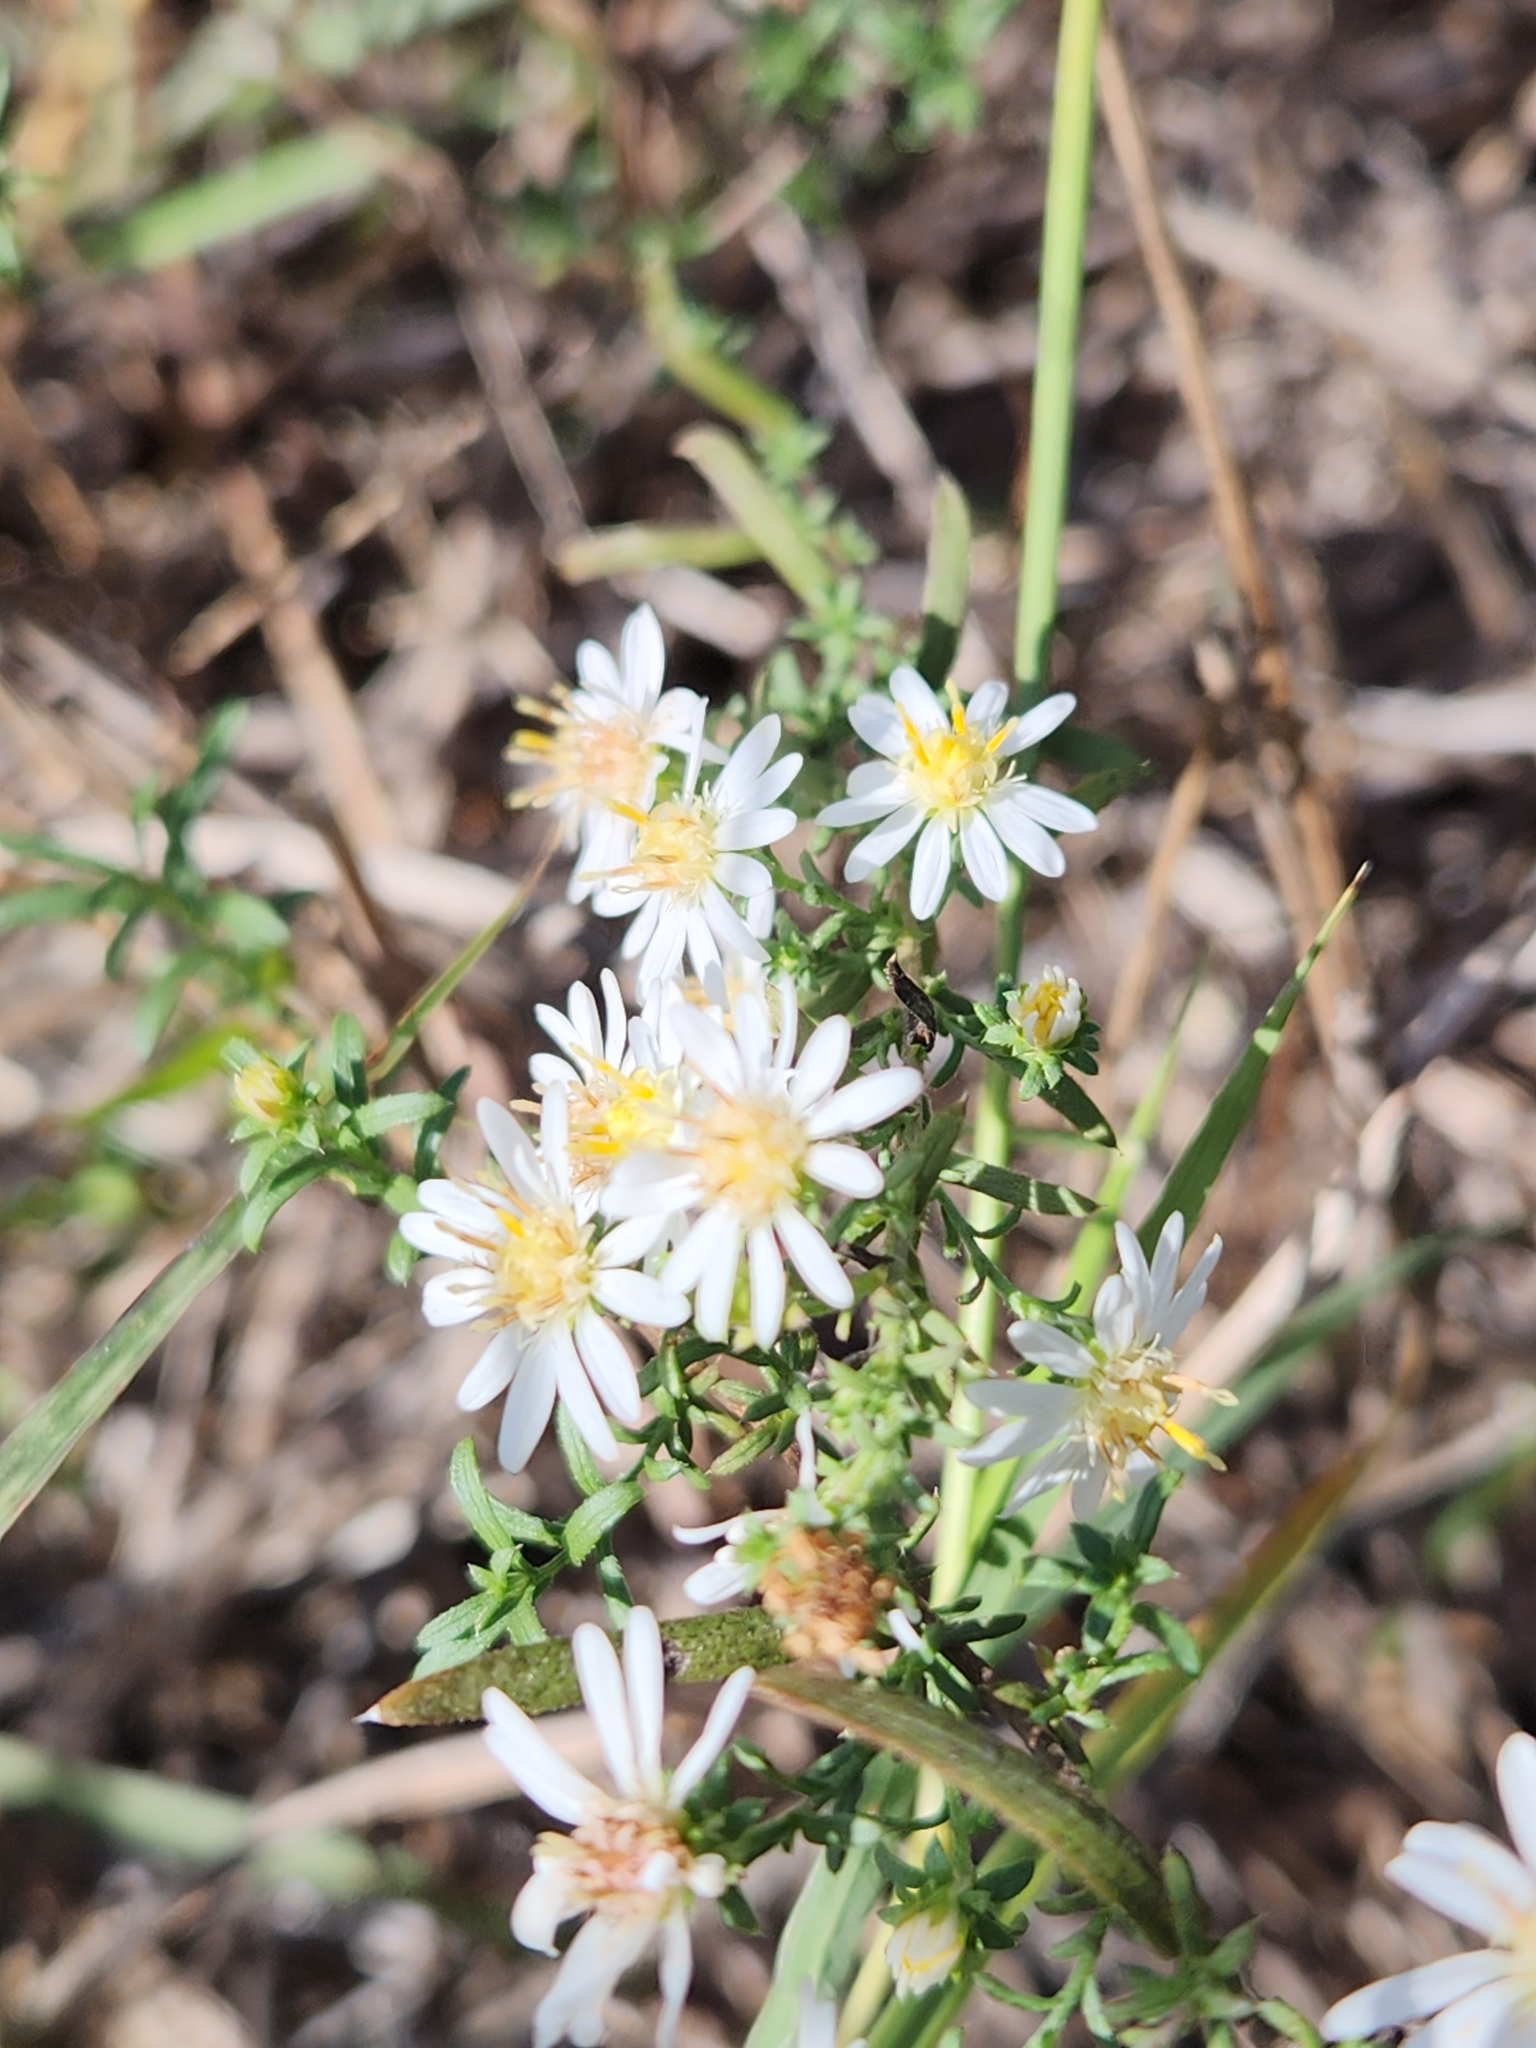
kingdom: Plantae
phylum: Tracheophyta
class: Magnoliopsida
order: Asterales
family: Asteraceae
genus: Symphyotrichum
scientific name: Symphyotrichum ericoides
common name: Heath aster
